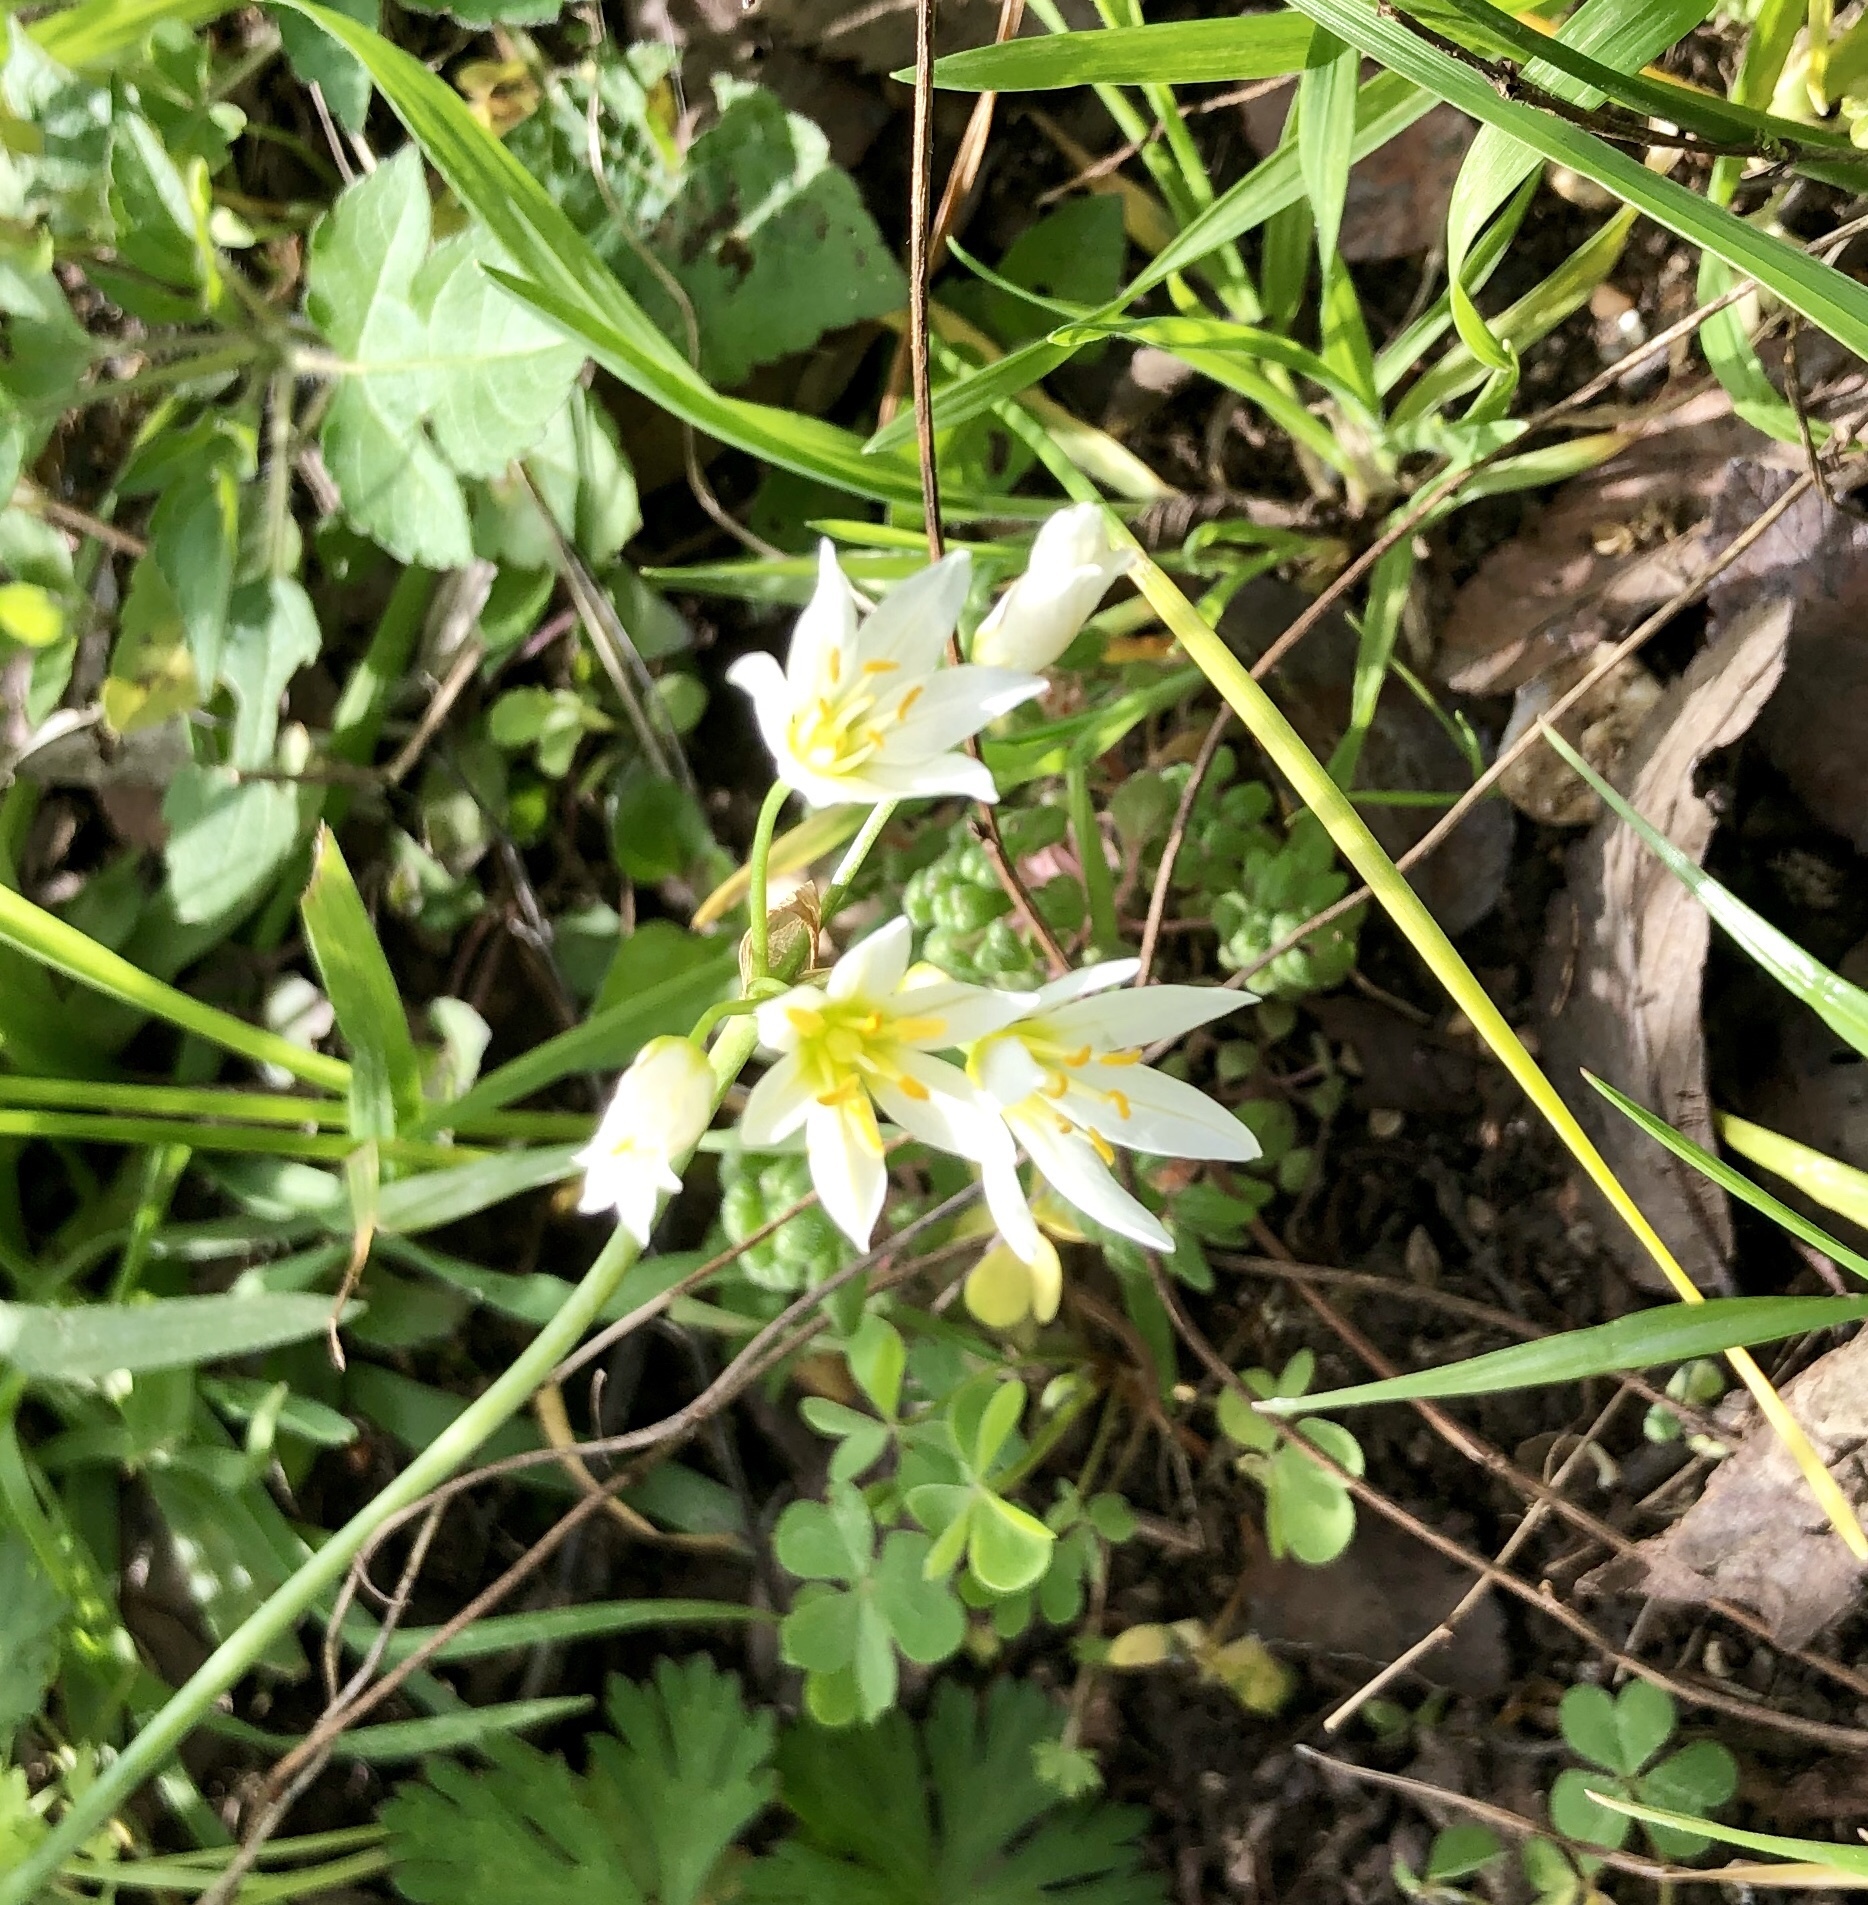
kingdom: Plantae
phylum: Tracheophyta
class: Liliopsida
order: Asparagales
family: Amaryllidaceae
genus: Nothoscordum
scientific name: Nothoscordum bivalve
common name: Crow-poison
